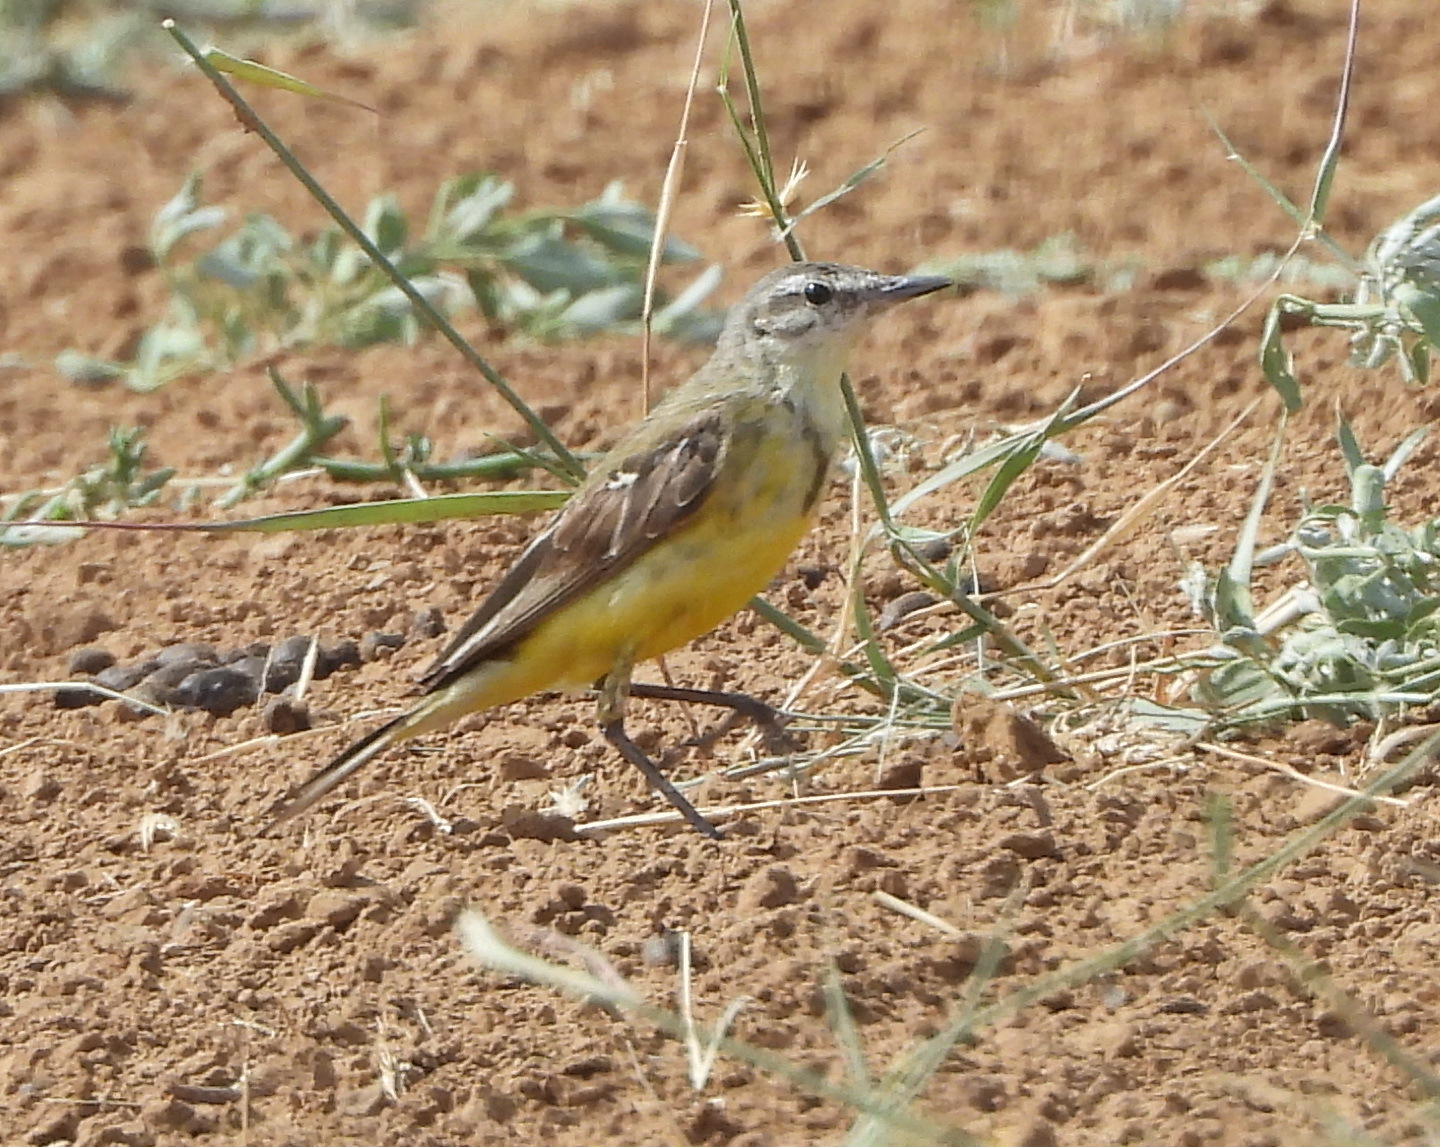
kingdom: Animalia
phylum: Chordata
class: Aves
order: Passeriformes
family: Motacillidae
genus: Motacilla
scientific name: Motacilla flava
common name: Western yellow wagtail
